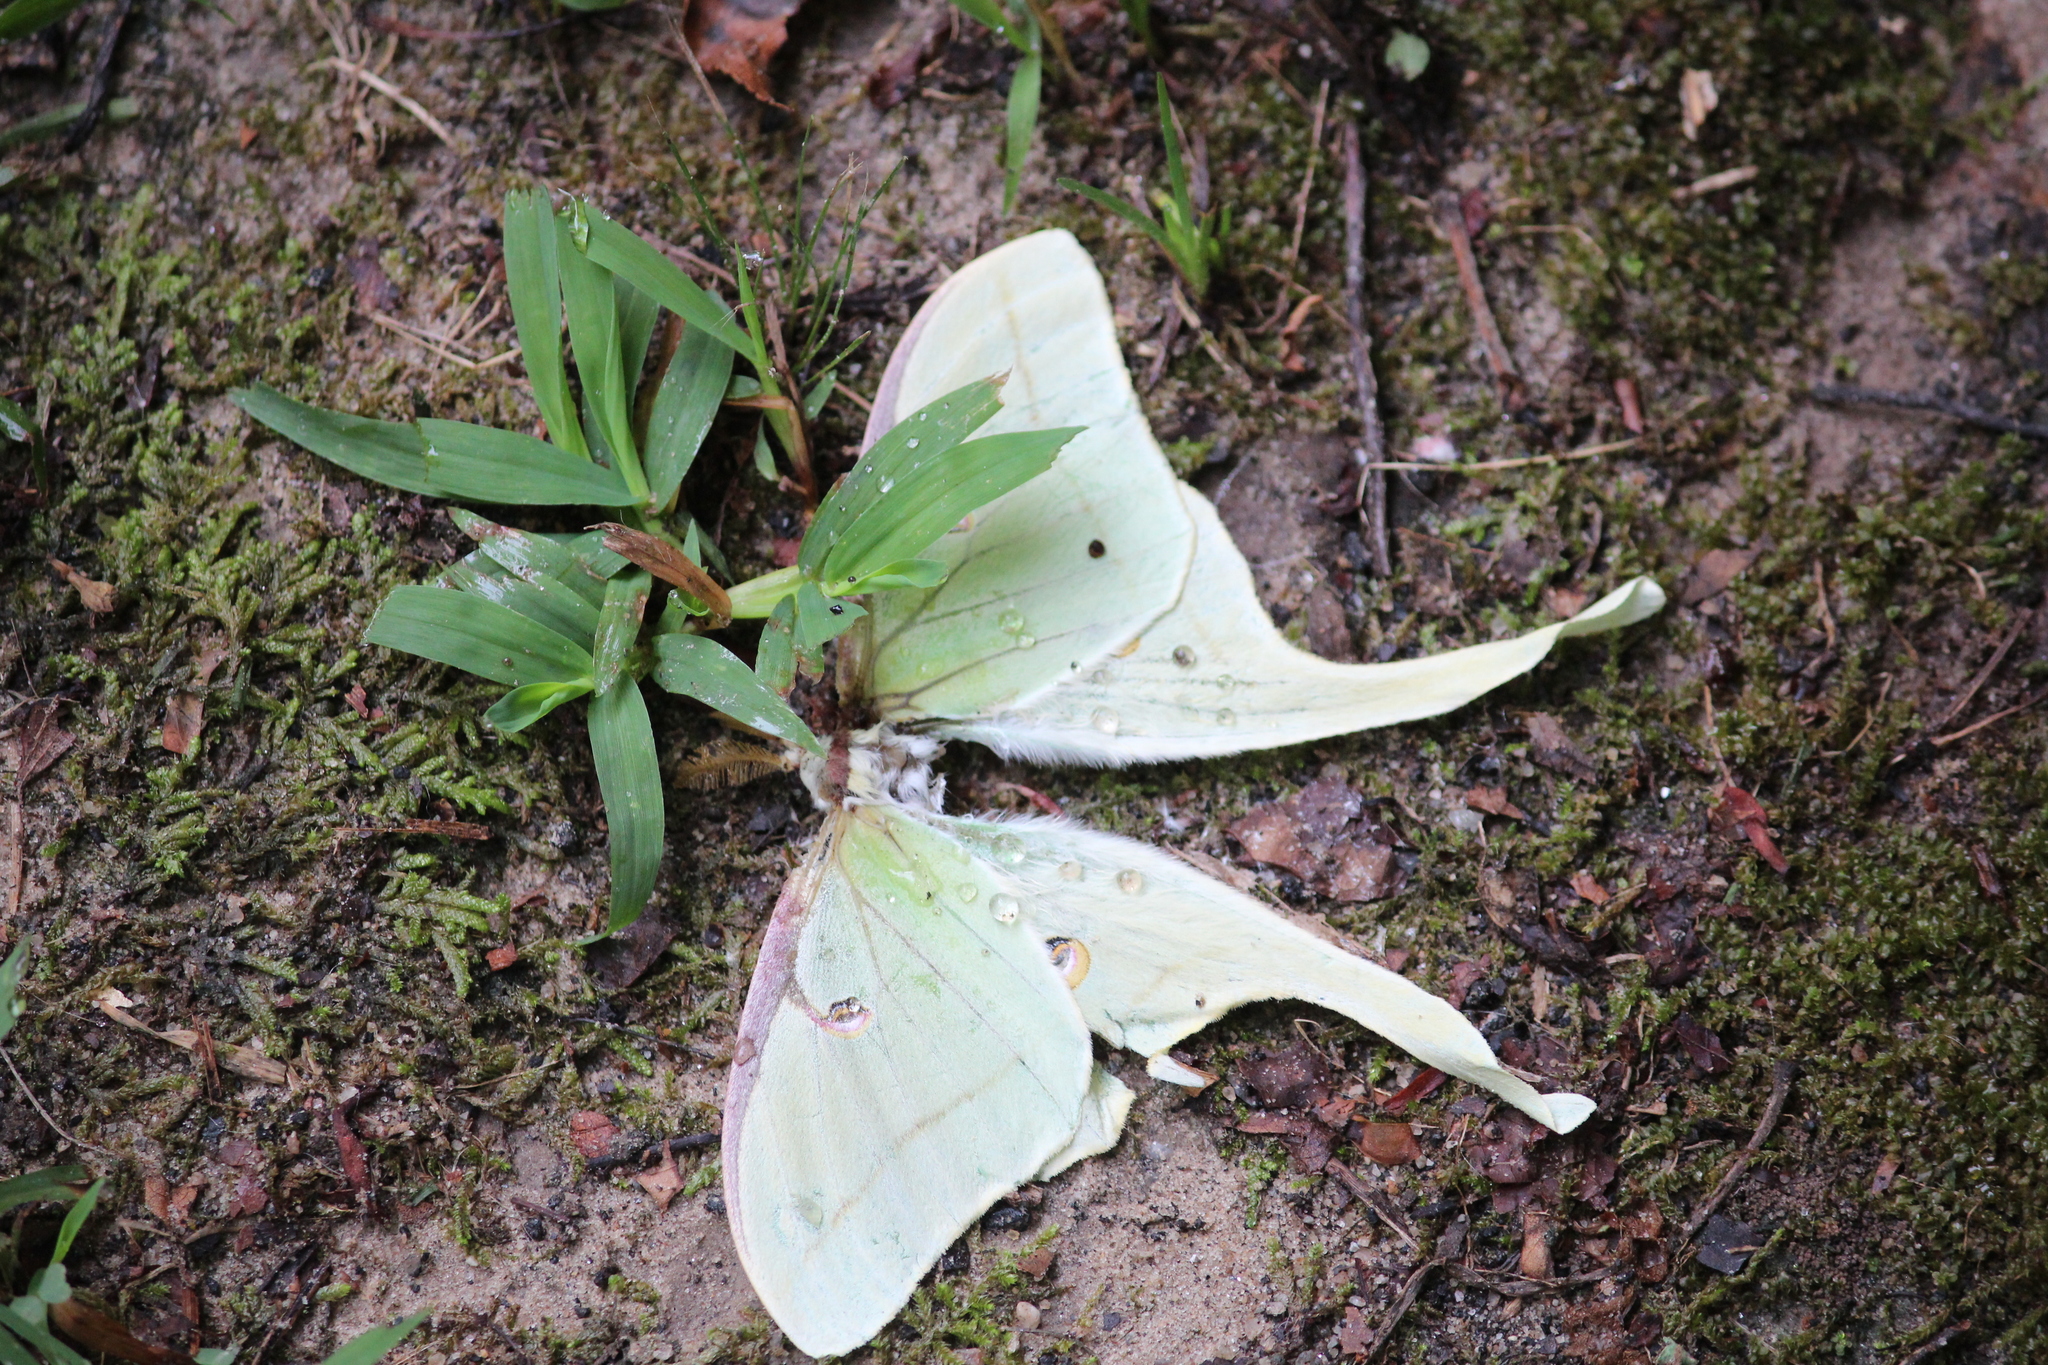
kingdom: Animalia
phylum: Arthropoda
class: Insecta
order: Lepidoptera
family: Saturniidae
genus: Actias
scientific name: Actias luna
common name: Luna moth
